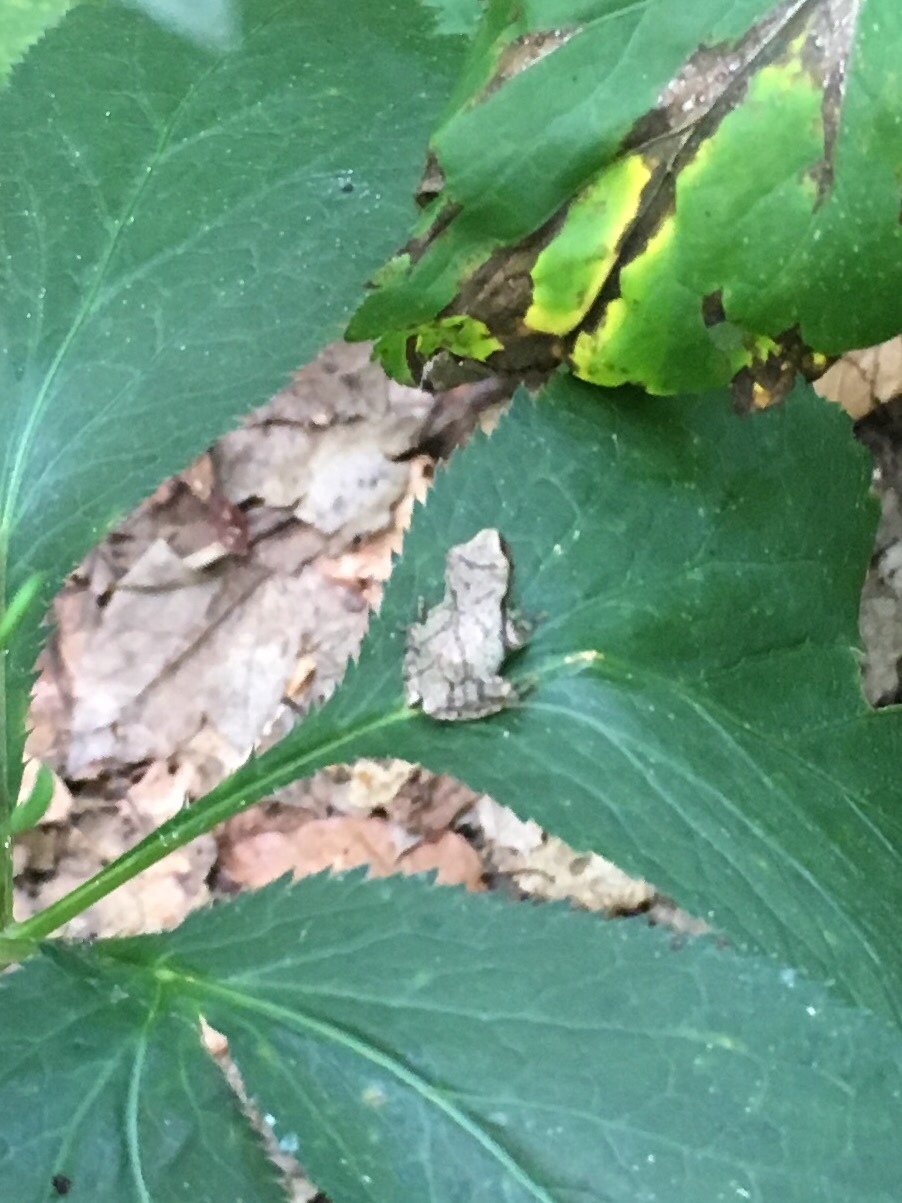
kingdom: Animalia
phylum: Chordata
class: Amphibia
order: Anura
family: Hylidae
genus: Pseudacris
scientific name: Pseudacris crucifer
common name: Spring peeper
